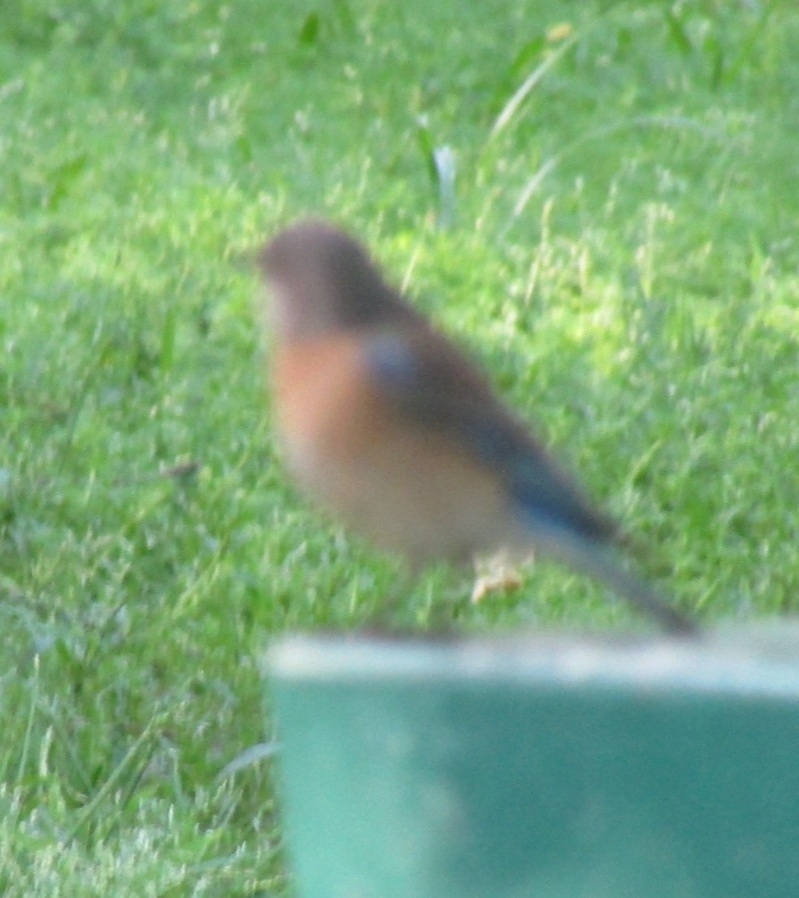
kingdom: Animalia
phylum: Chordata
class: Aves
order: Passeriformes
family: Turdidae
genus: Sialia
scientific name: Sialia mexicana
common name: Western bluebird
